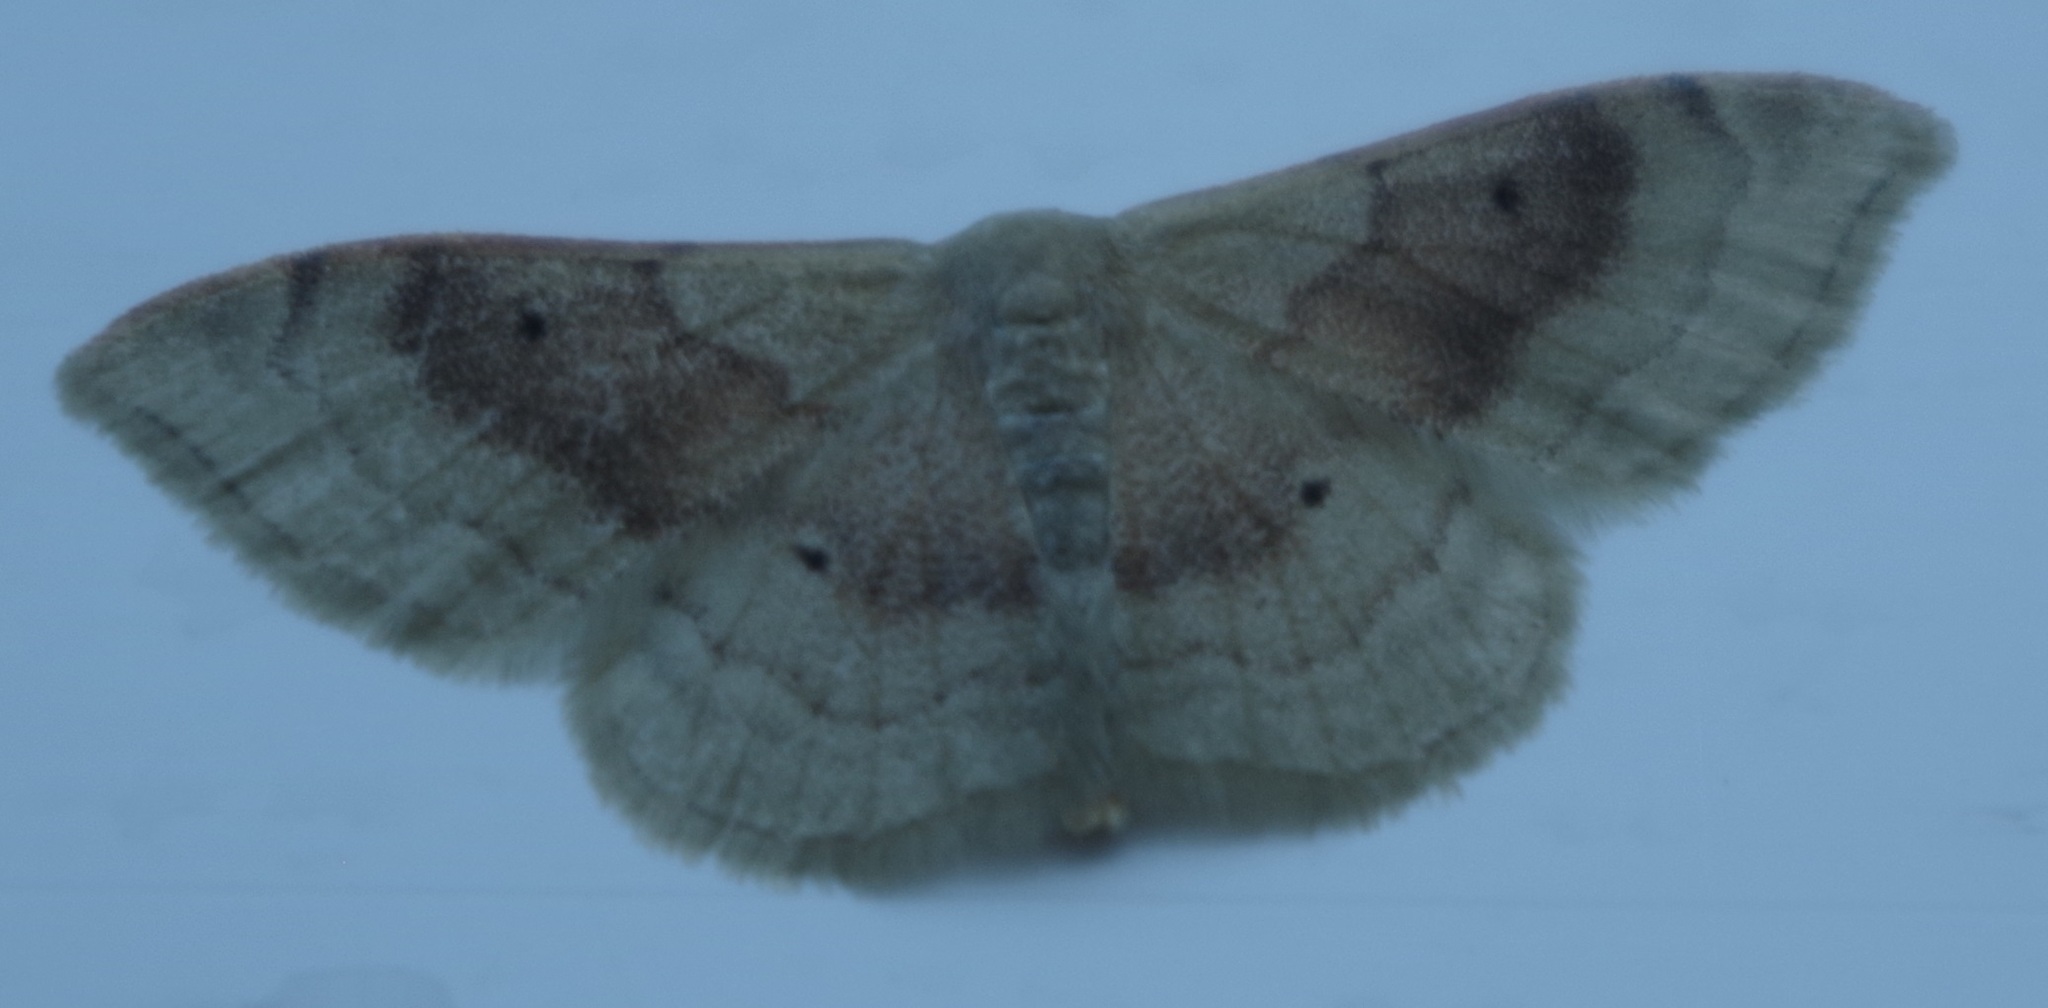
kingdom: Animalia
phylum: Arthropoda
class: Insecta
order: Lepidoptera
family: Geometridae
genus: Idaea
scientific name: Idaea degeneraria
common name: Portland ribbon wave
